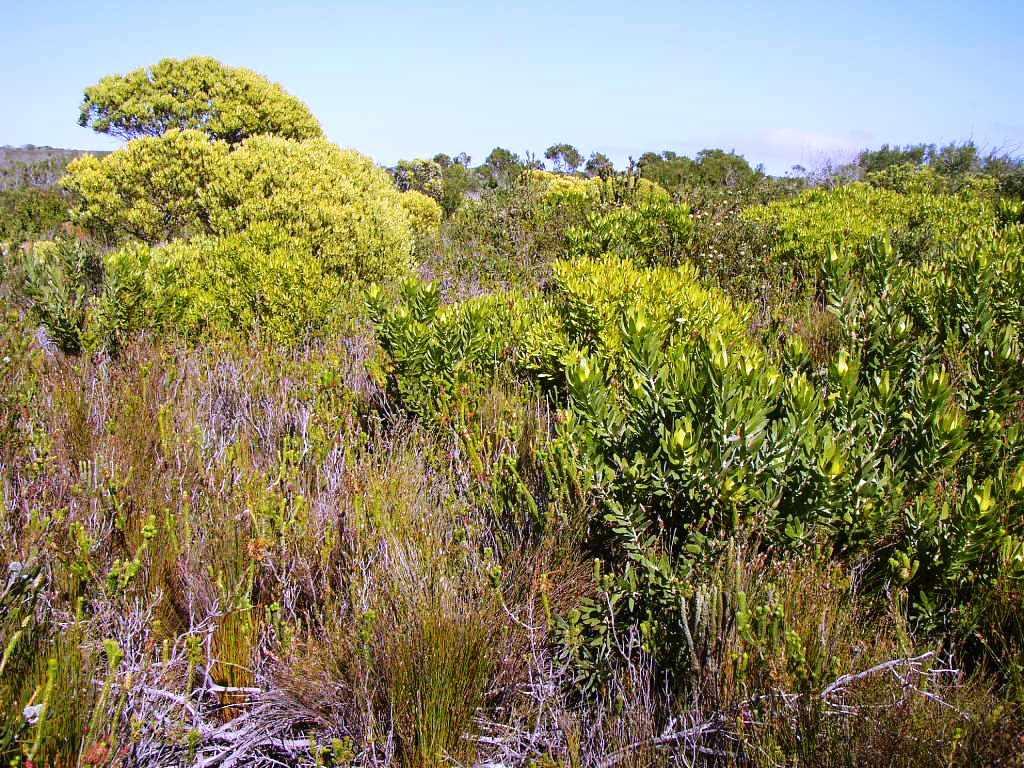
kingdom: Plantae
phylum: Tracheophyta
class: Magnoliopsida
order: Proteales
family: Proteaceae
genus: Leucadendron
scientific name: Leucadendron laureolum
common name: Golden sunshinebush
